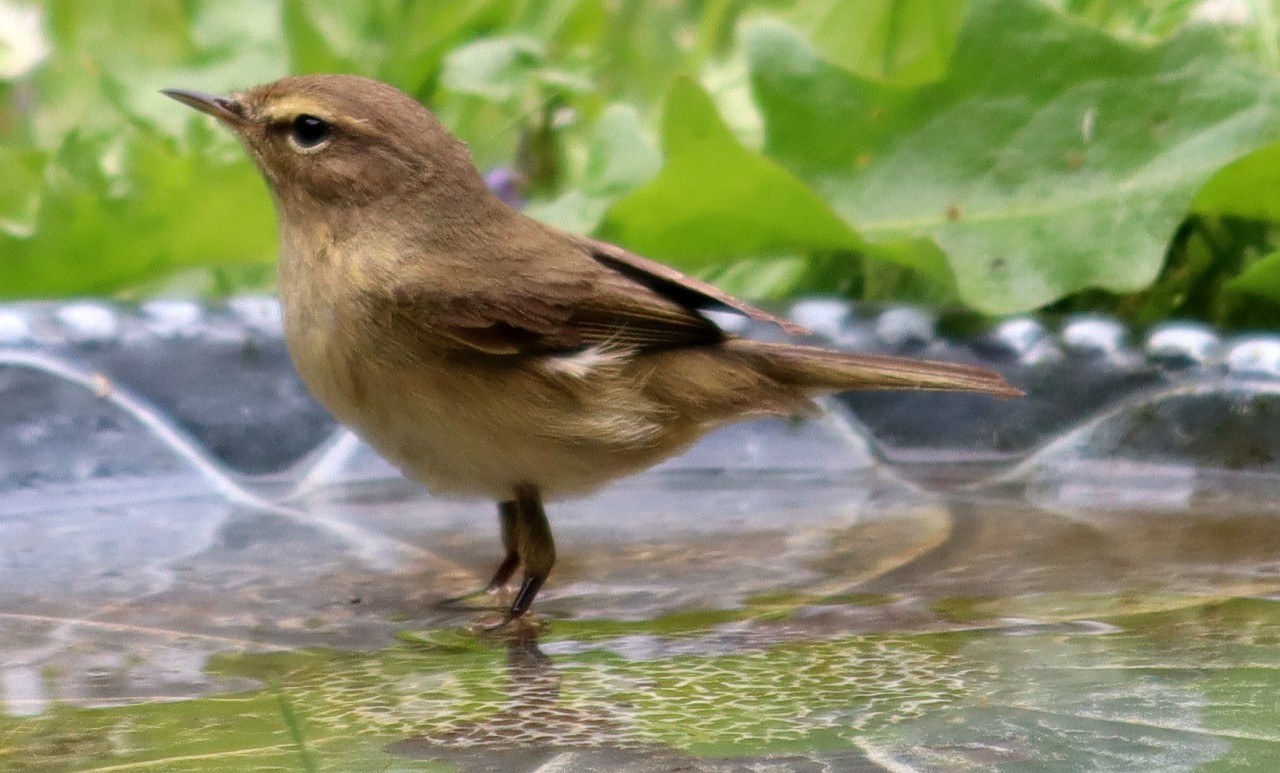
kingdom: Animalia
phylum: Chordata
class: Aves
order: Passeriformes
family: Phylloscopidae
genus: Phylloscopus
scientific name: Phylloscopus collybita
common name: Common chiffchaff
